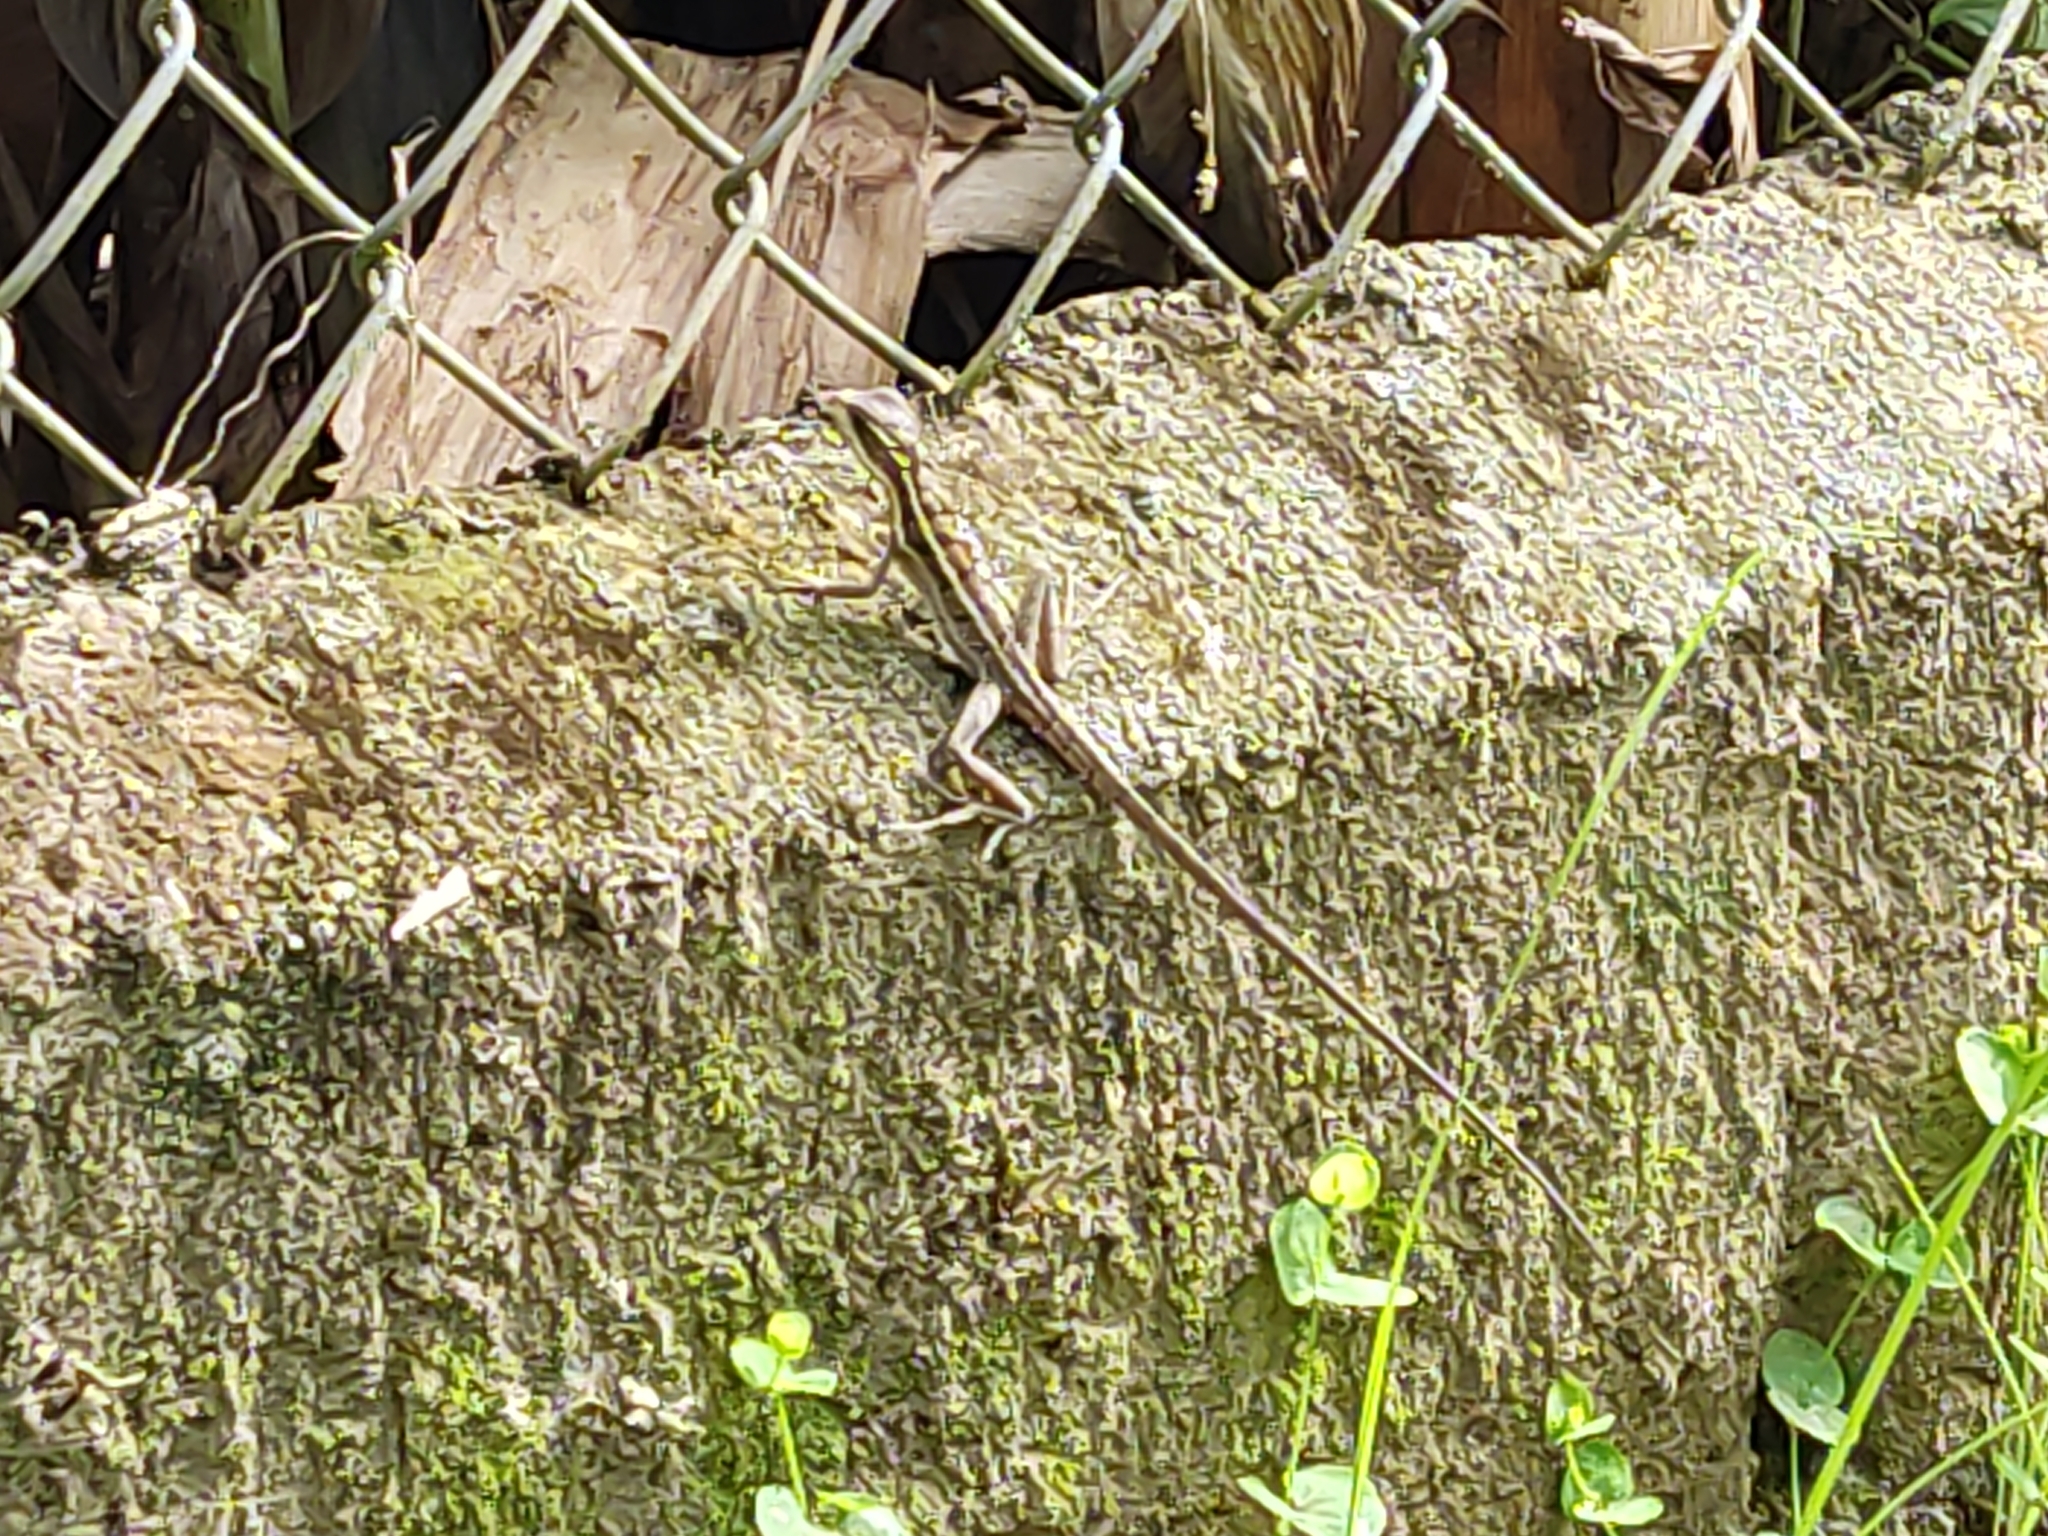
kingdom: Animalia
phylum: Chordata
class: Squamata
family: Corytophanidae
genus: Basiliscus
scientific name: Basiliscus vittatus
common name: Brown basilisk
